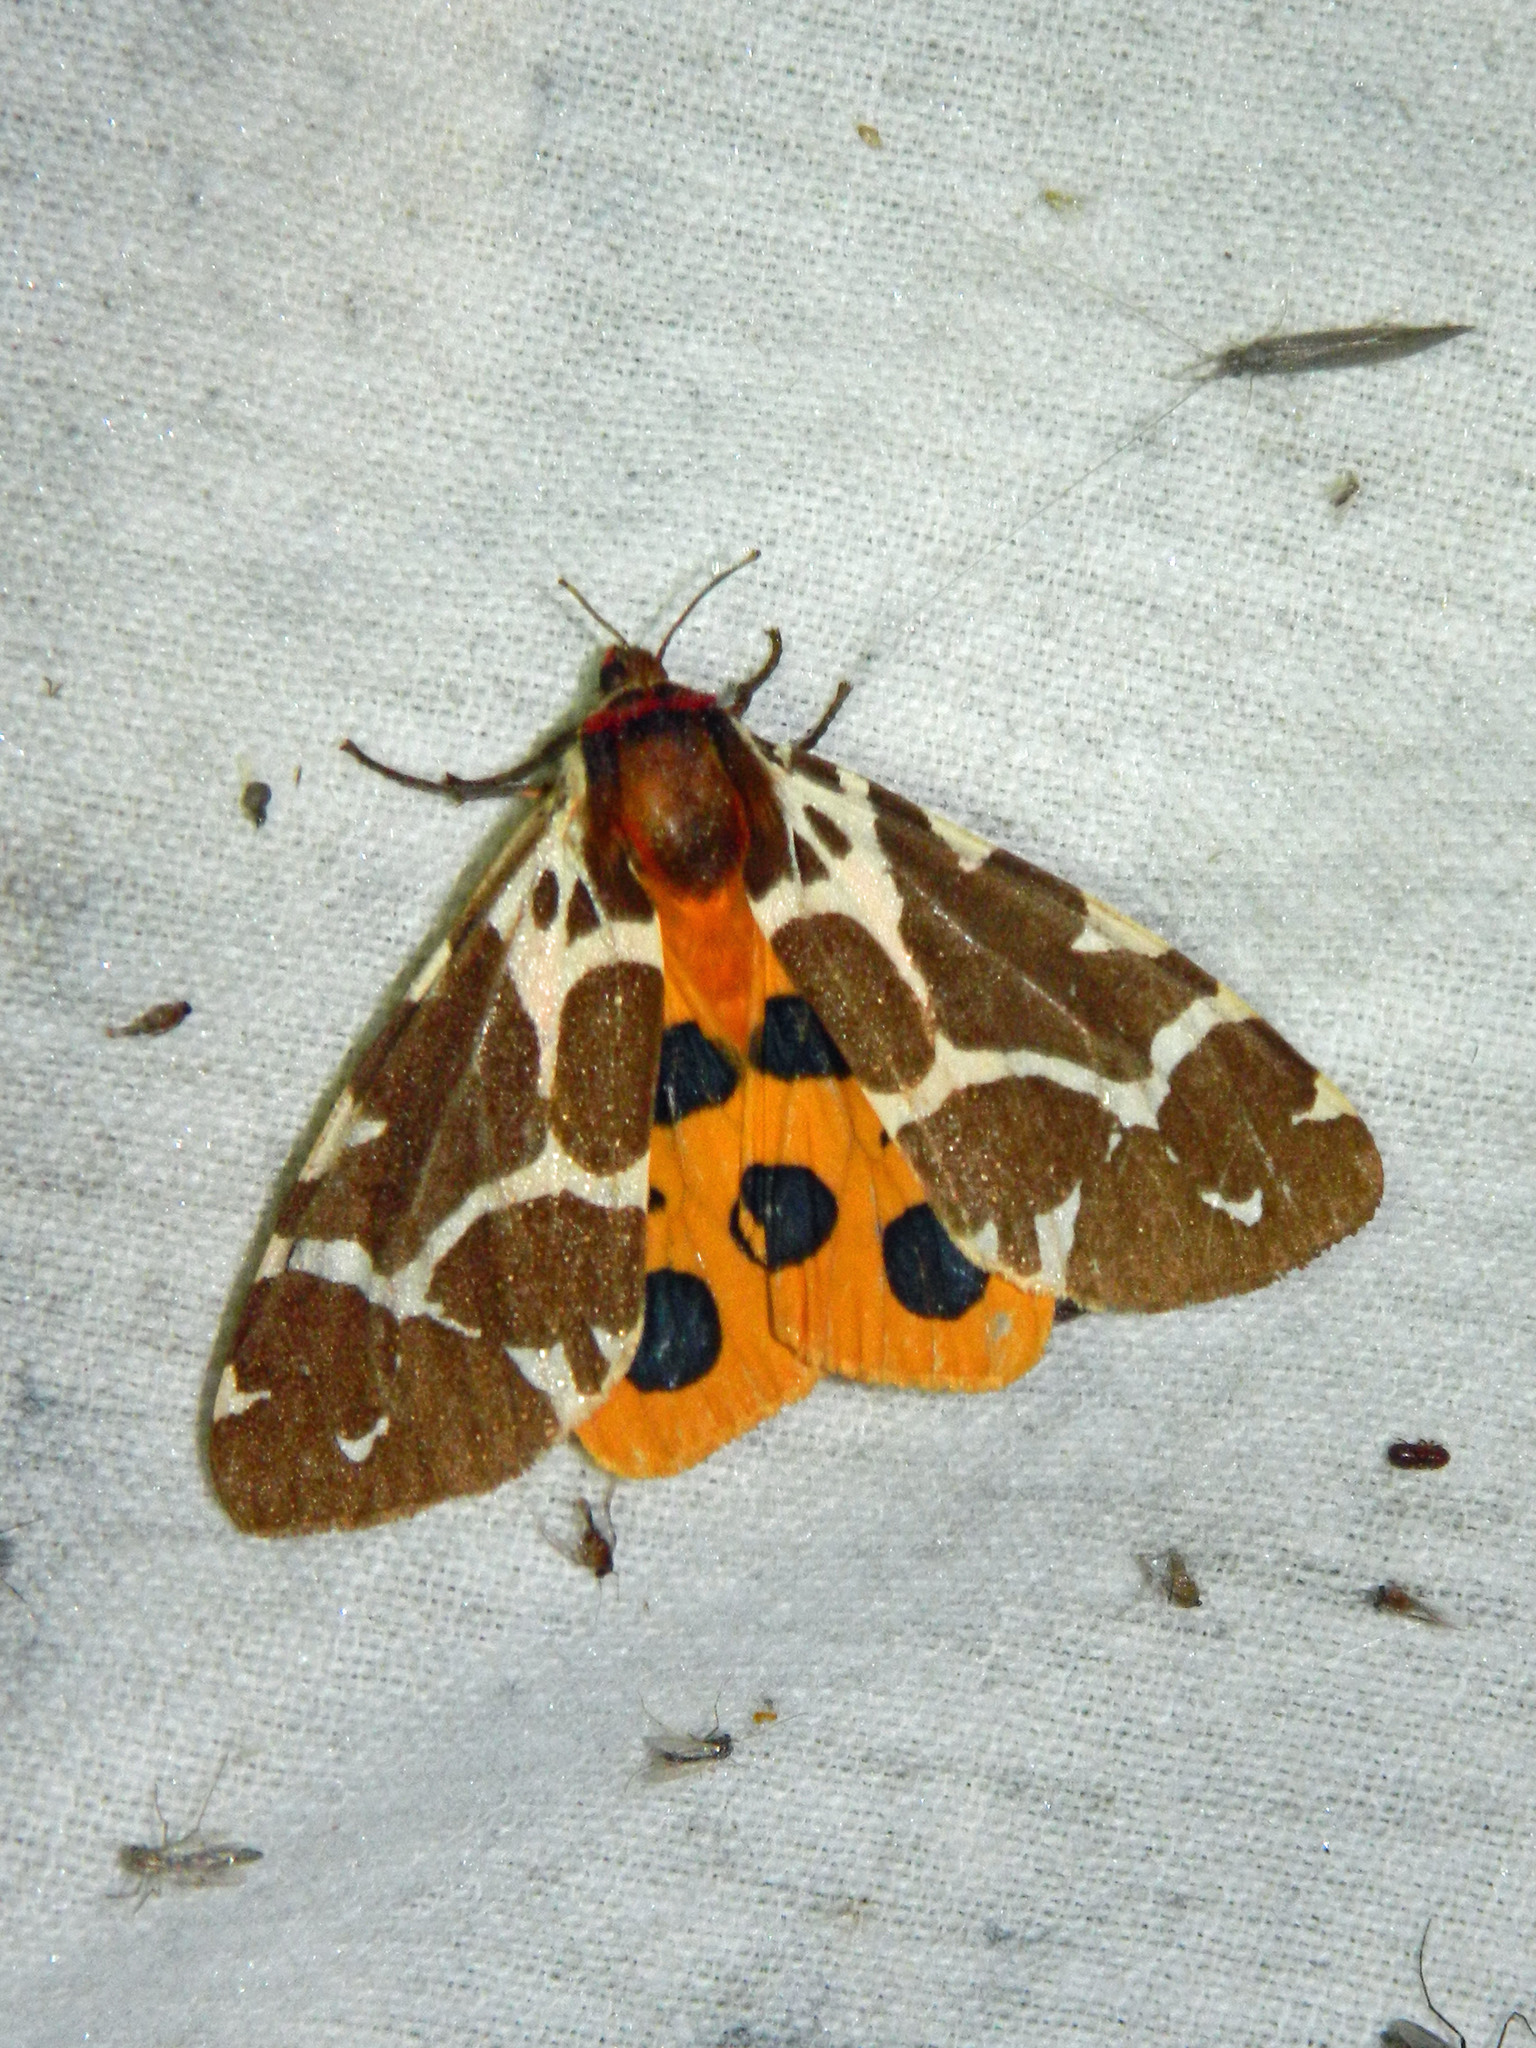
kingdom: Animalia
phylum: Arthropoda
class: Insecta
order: Lepidoptera
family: Erebidae
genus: Arctia
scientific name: Arctia caja
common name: Garden tiger
